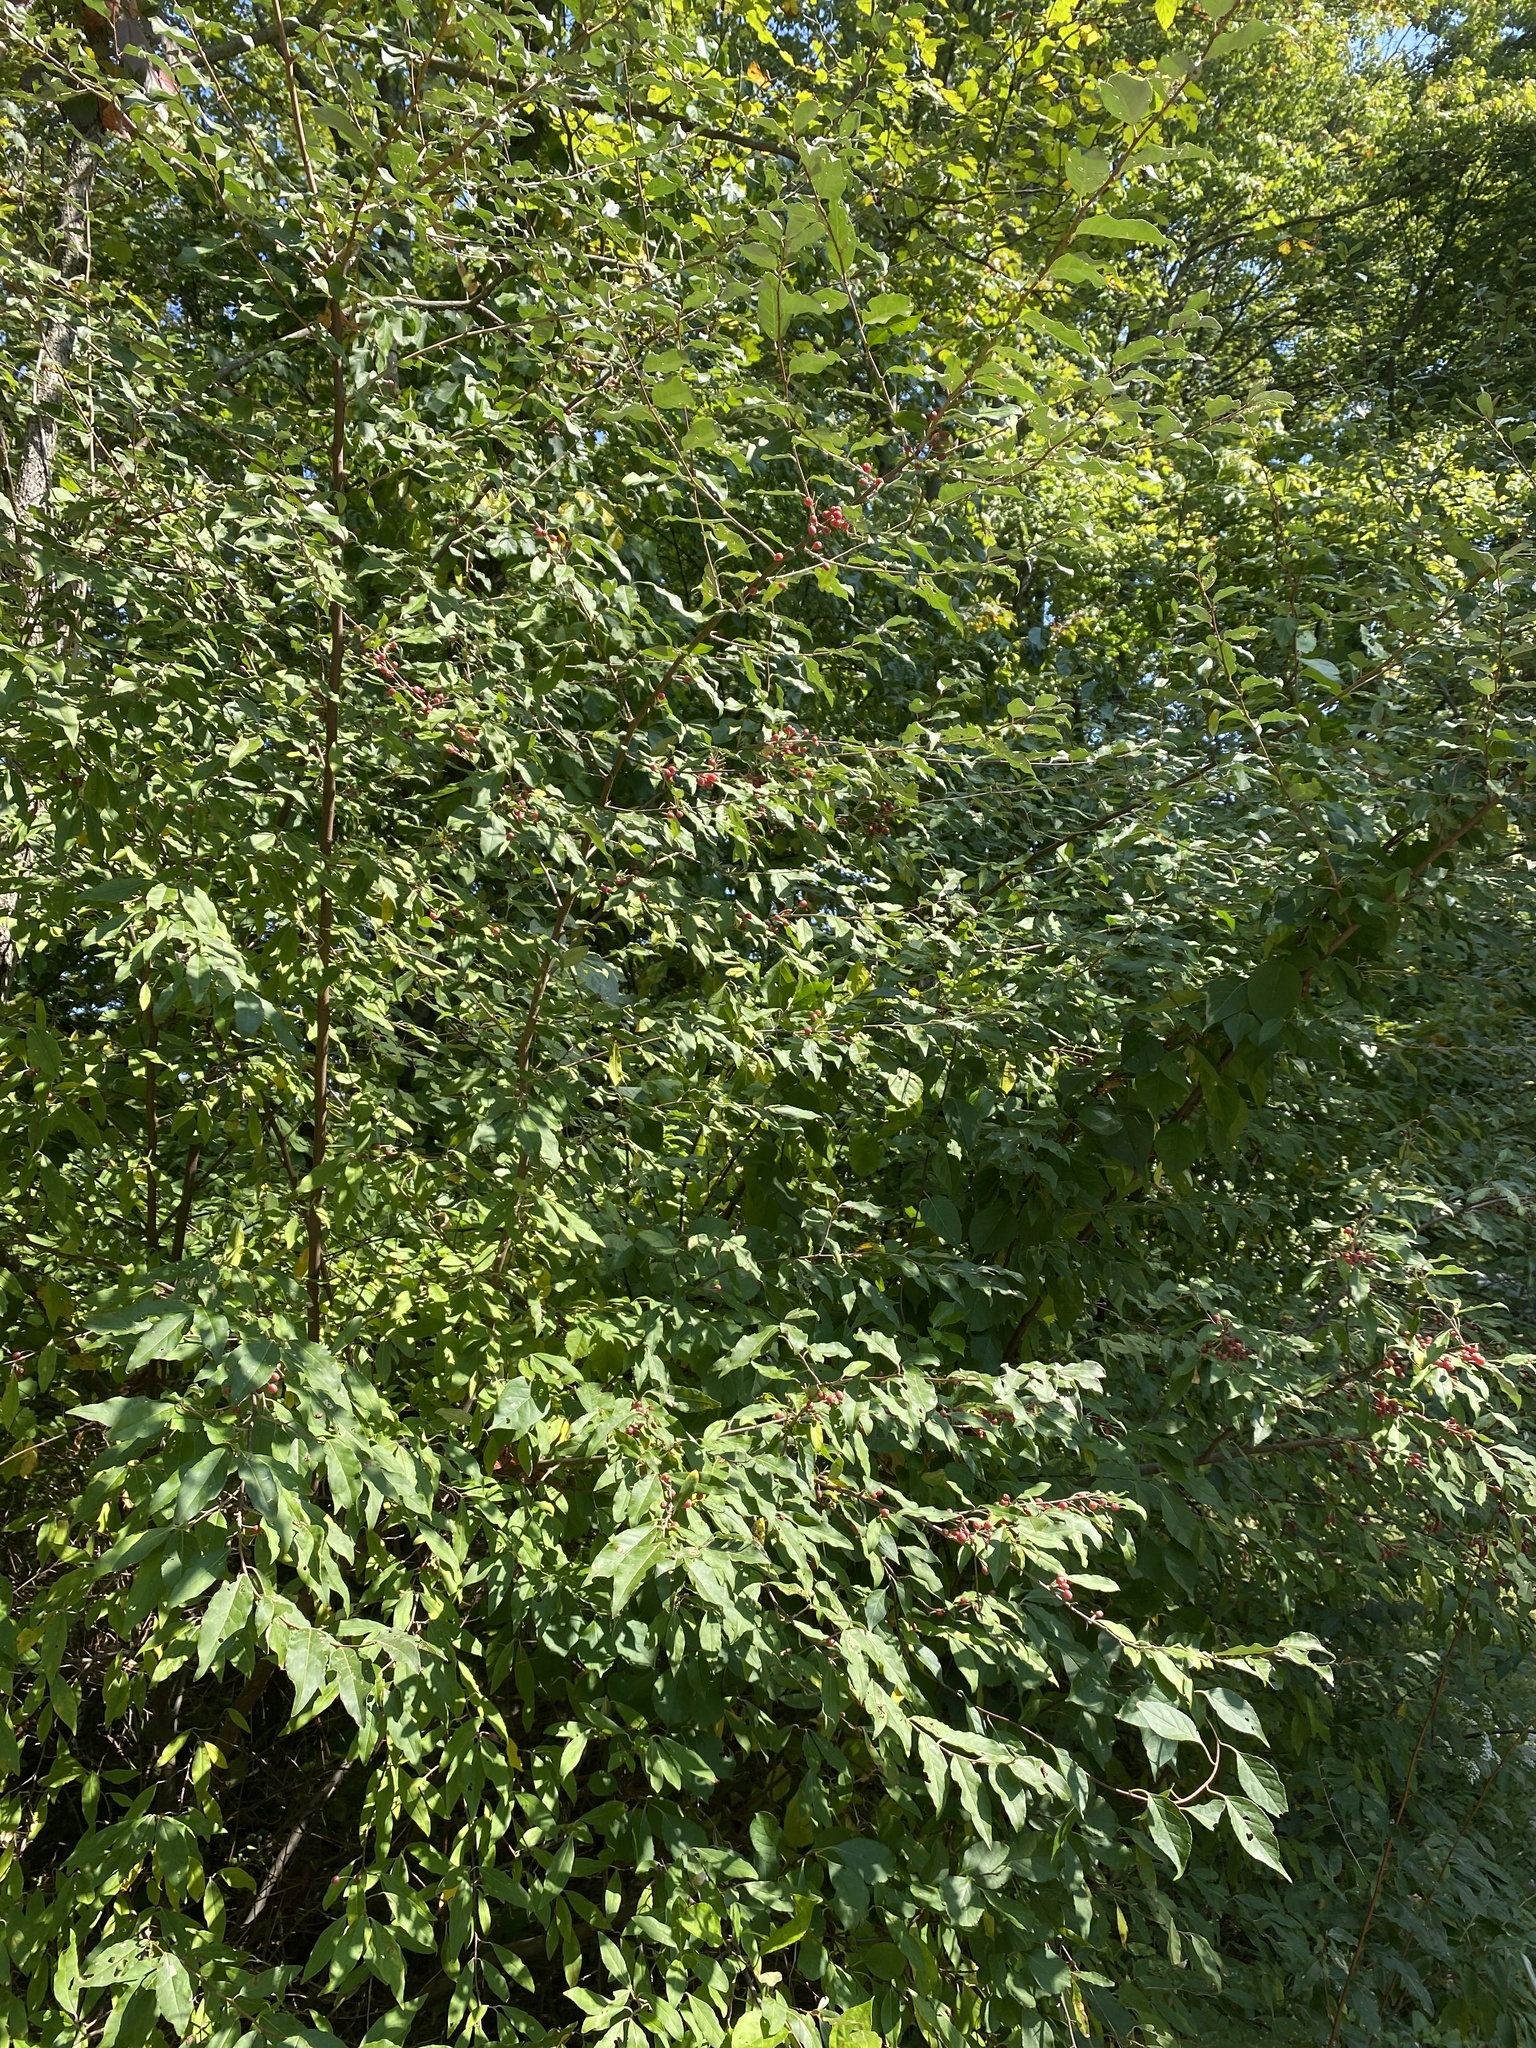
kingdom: Plantae
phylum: Tracheophyta
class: Magnoliopsida
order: Rosales
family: Elaeagnaceae
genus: Elaeagnus
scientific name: Elaeagnus umbellata
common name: Autumn olive
